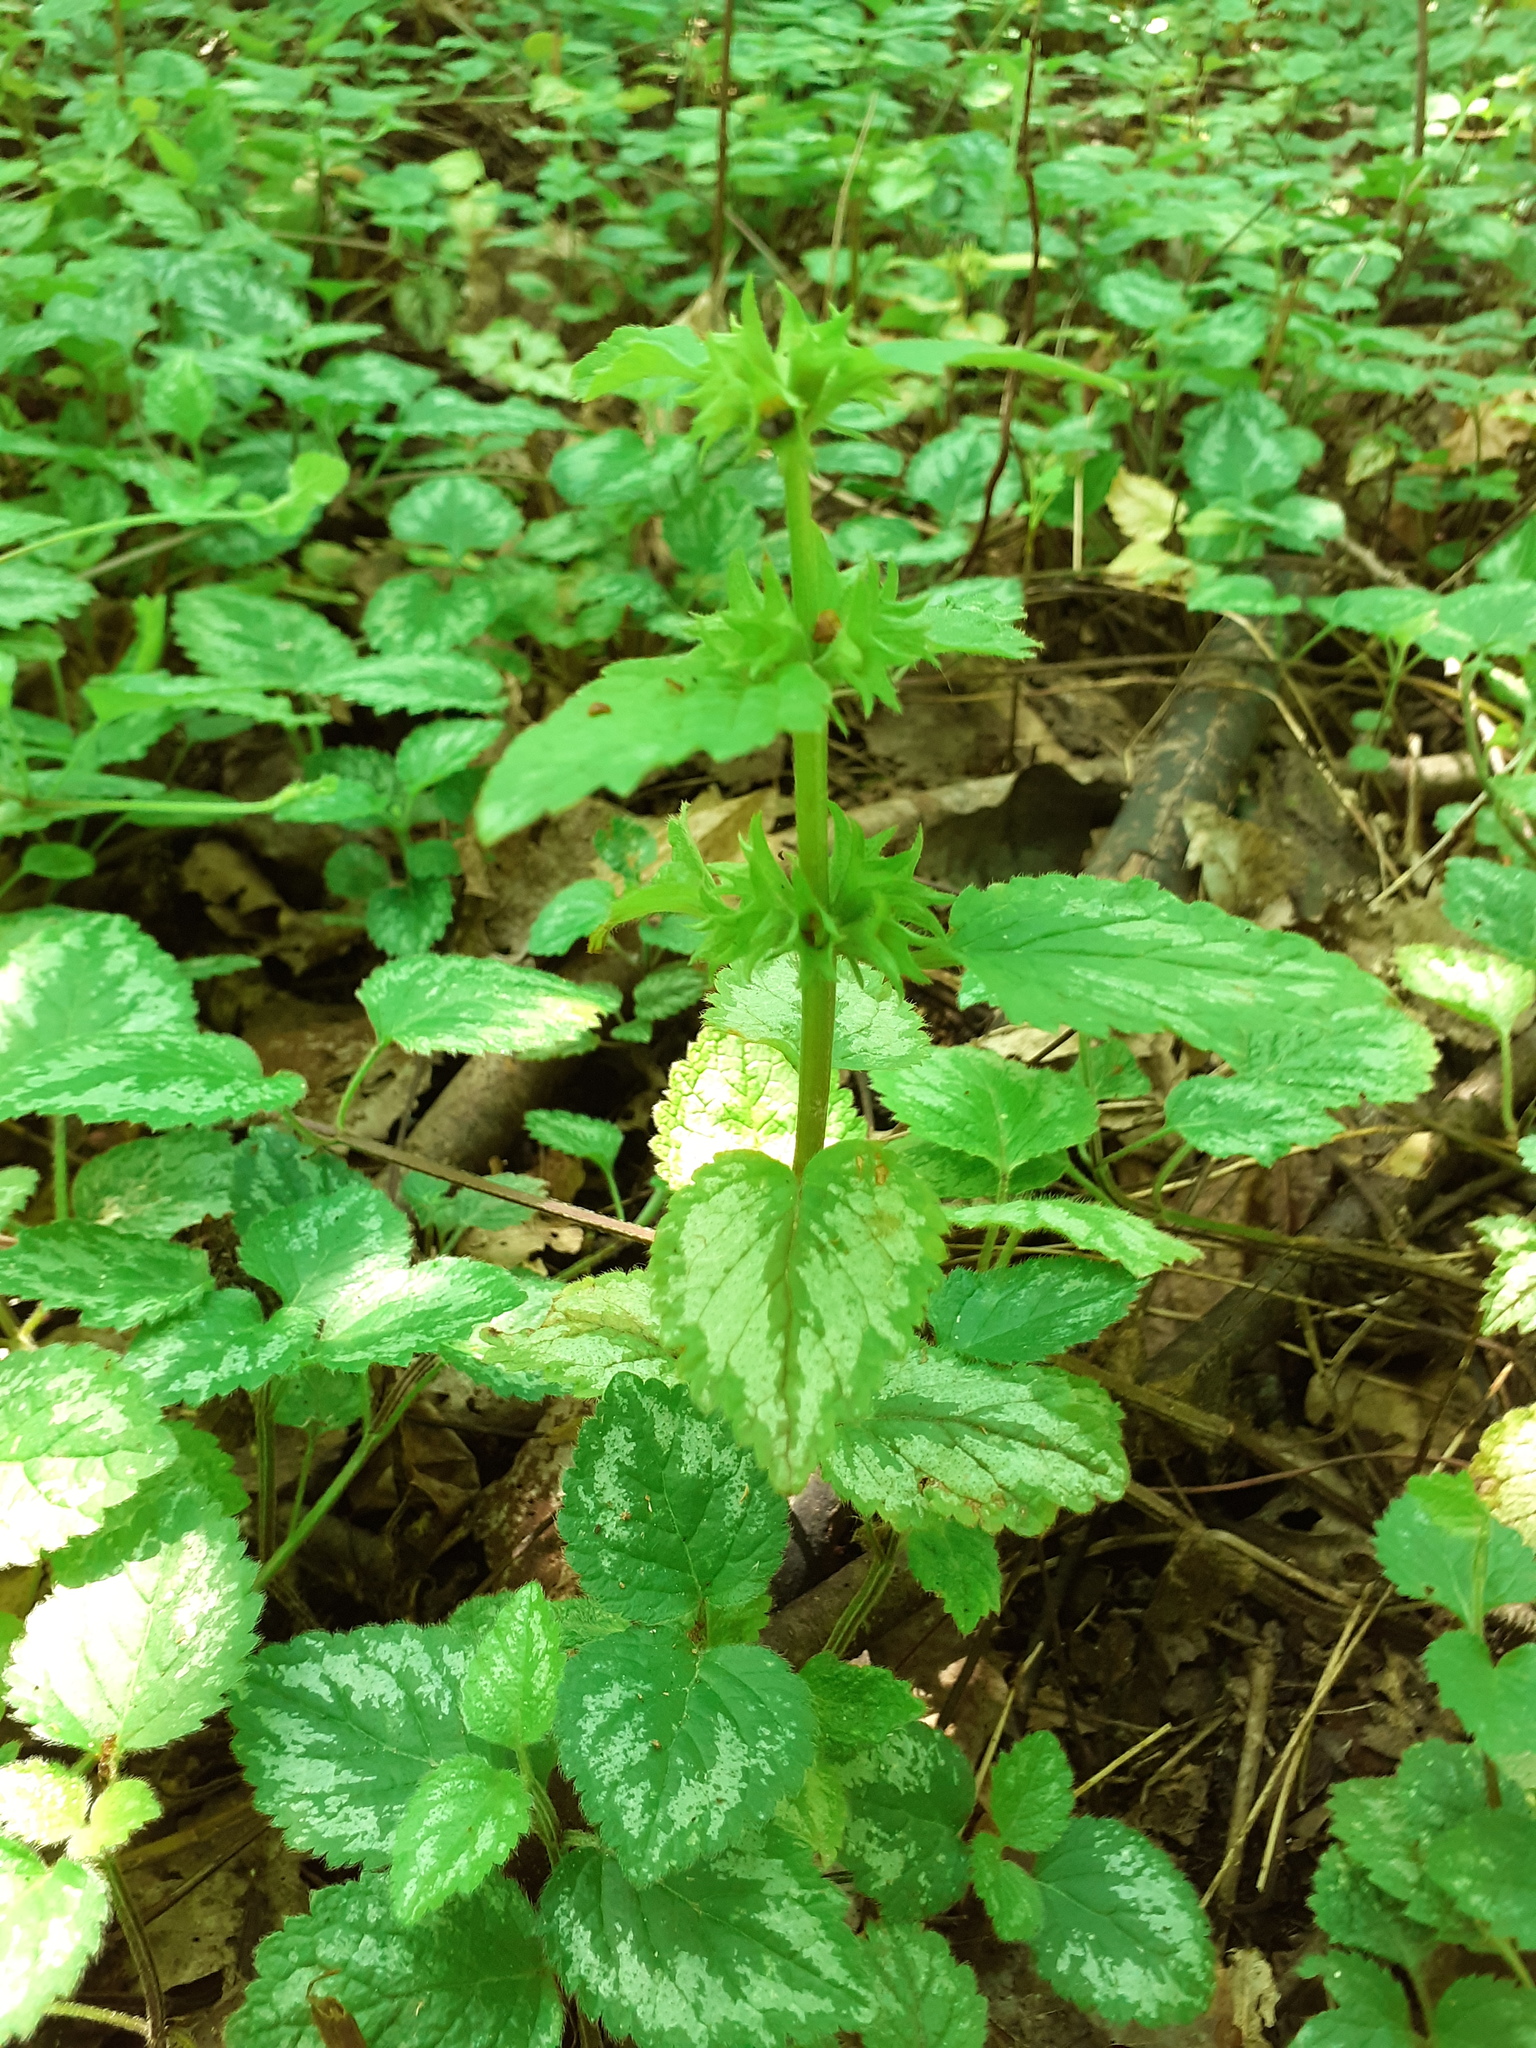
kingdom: Plantae
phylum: Tracheophyta
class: Magnoliopsida
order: Lamiales
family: Lamiaceae
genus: Lamium
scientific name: Lamium galeobdolon
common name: Yellow archangel
